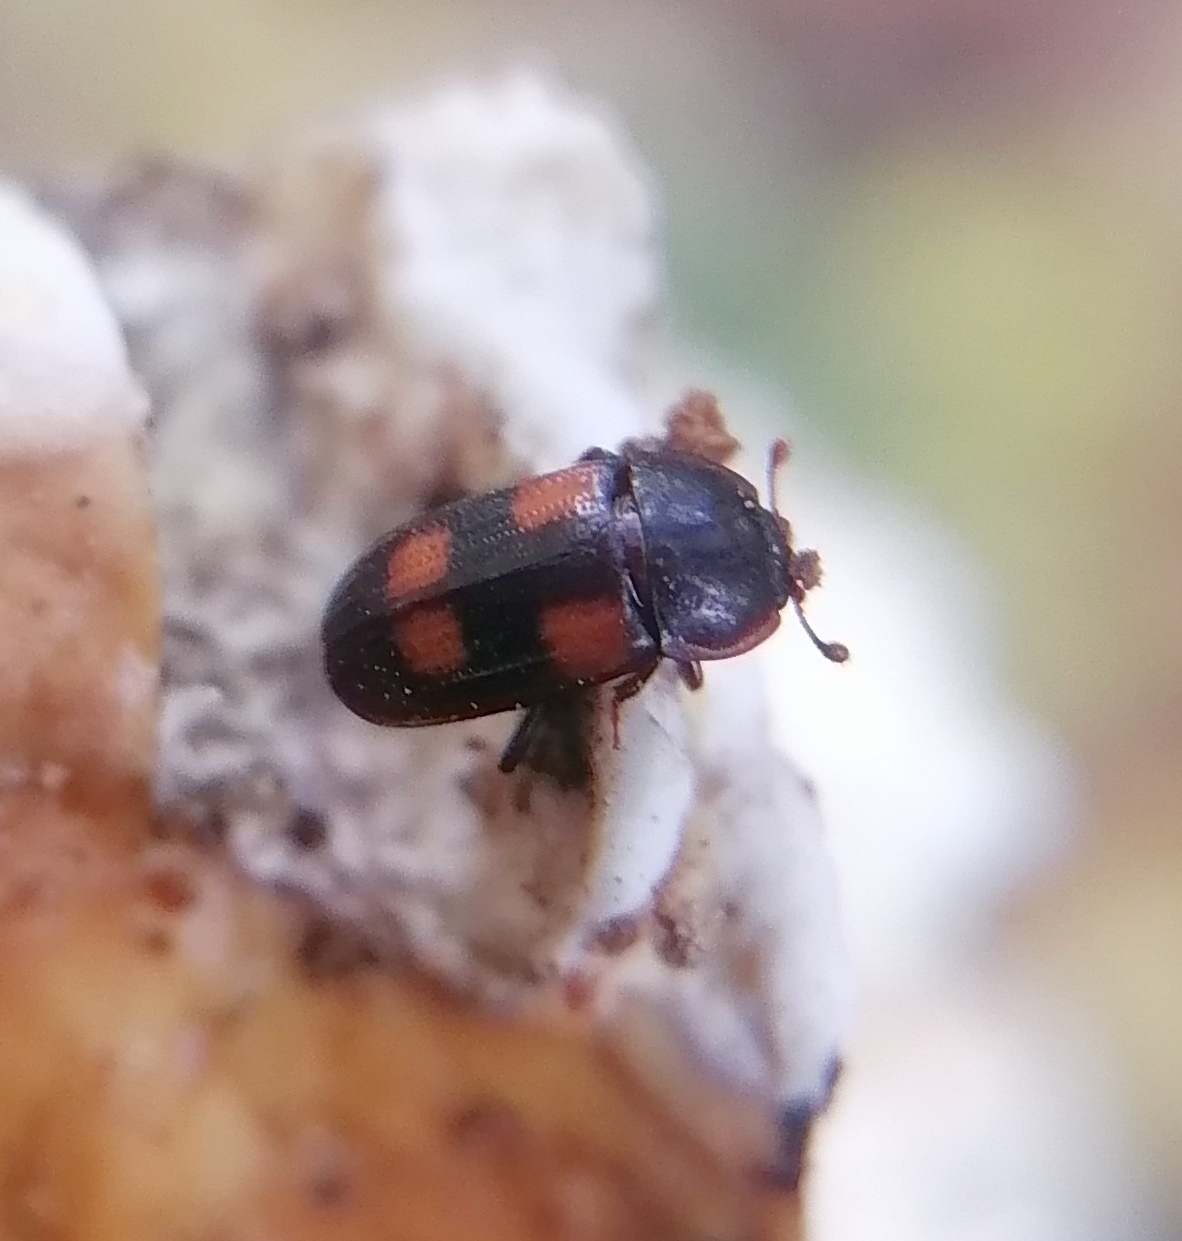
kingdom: Animalia
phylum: Arthropoda
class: Insecta
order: Coleoptera
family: Nitidulidae
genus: Ipidia
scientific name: Ipidia binotata
